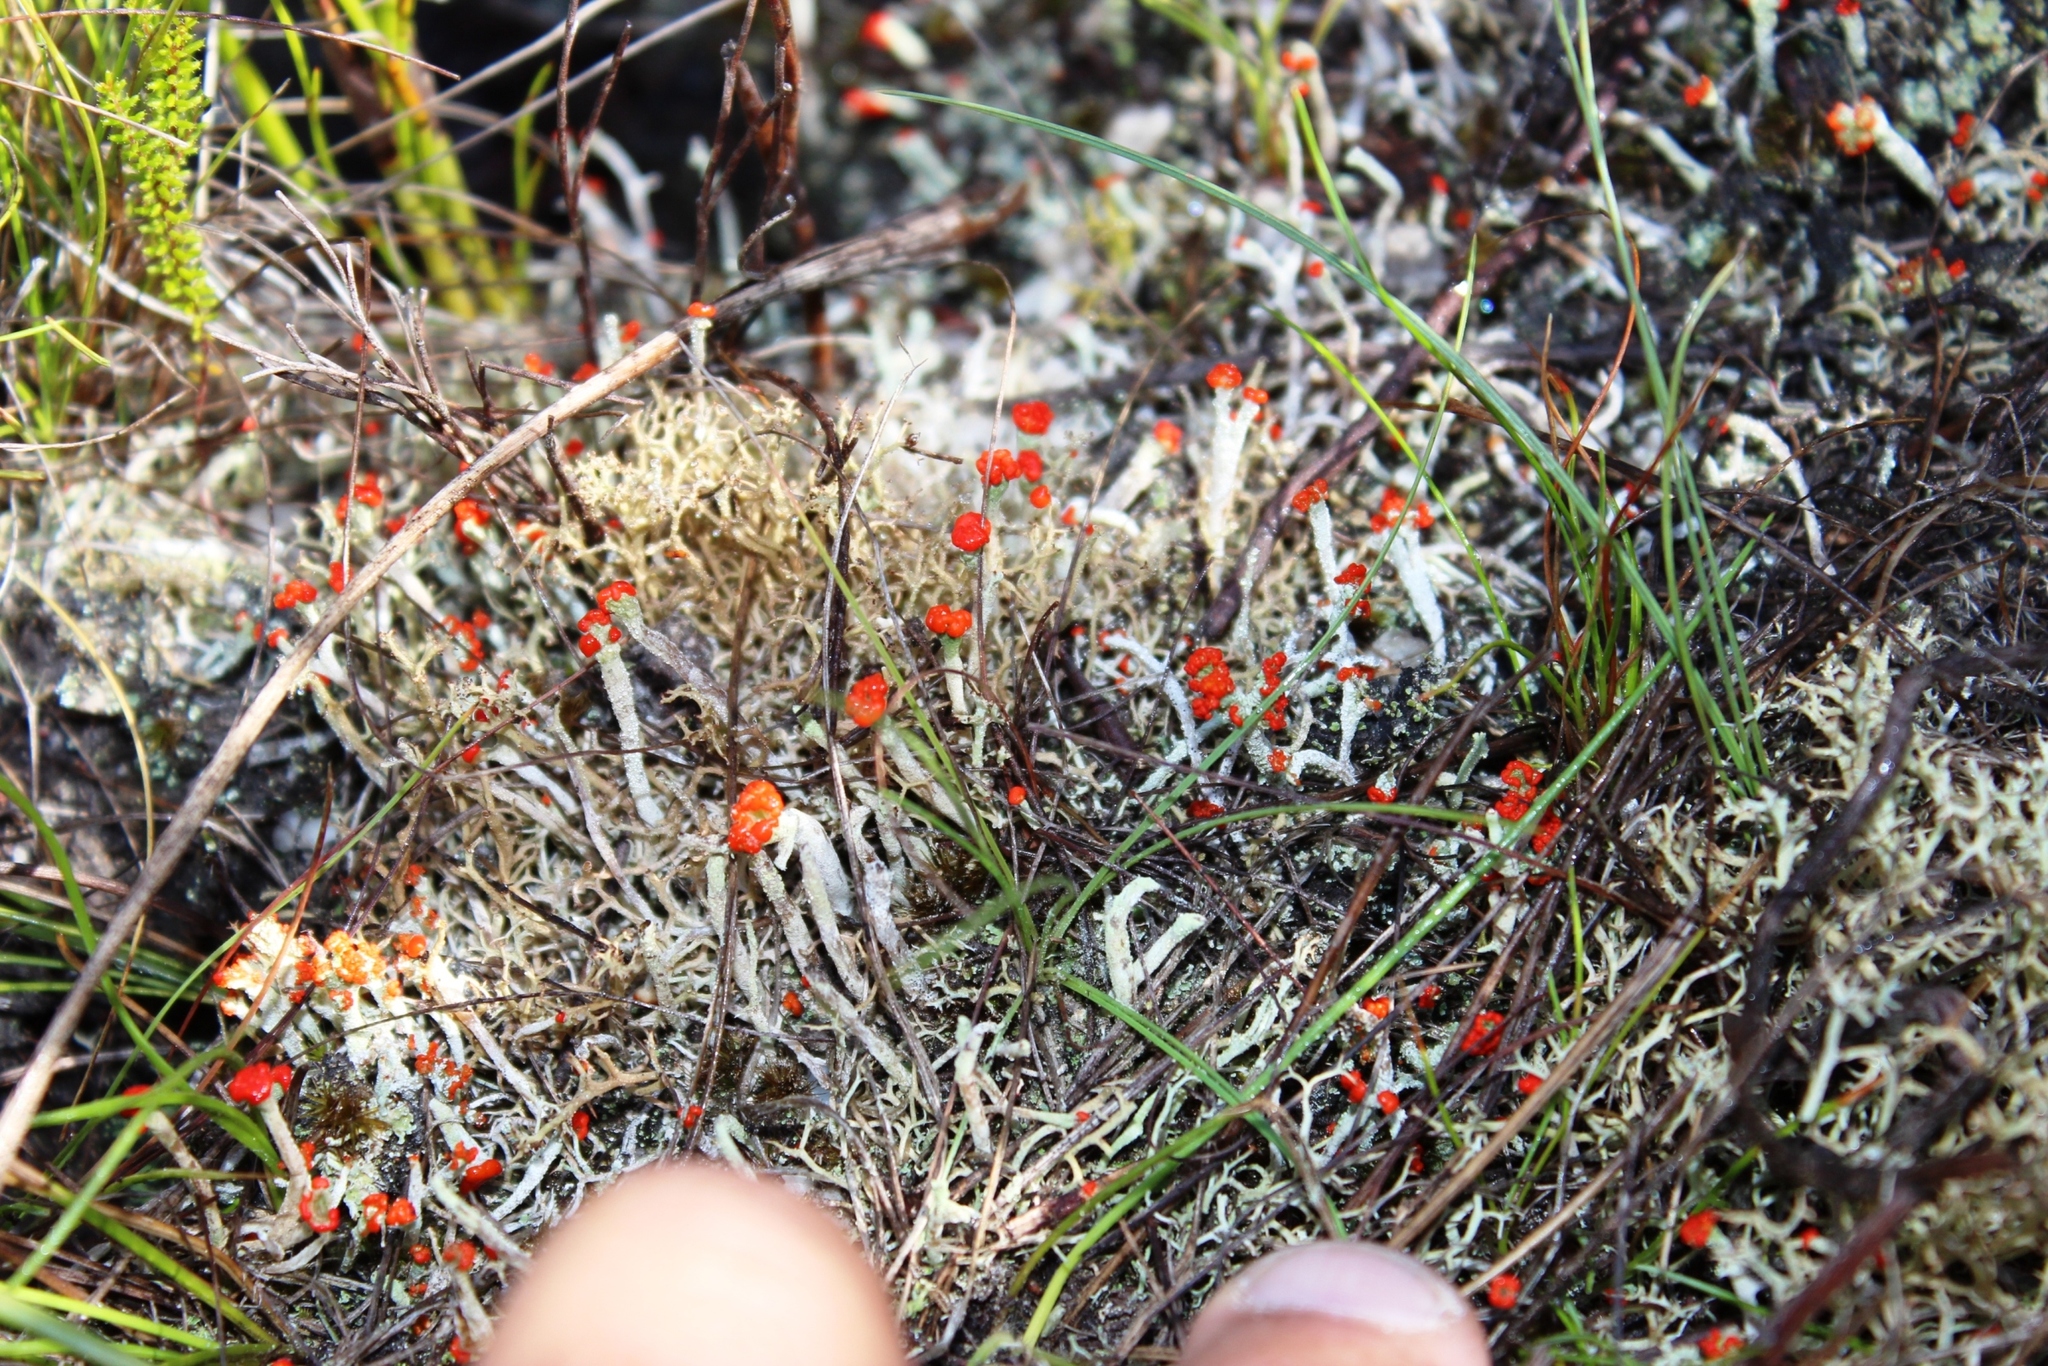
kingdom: Fungi
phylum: Ascomycota
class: Lecanoromycetes
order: Lecanorales
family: Cladoniaceae
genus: Cladonia
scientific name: Cladonia floerkeana
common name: Gritty british soldiers lichen
